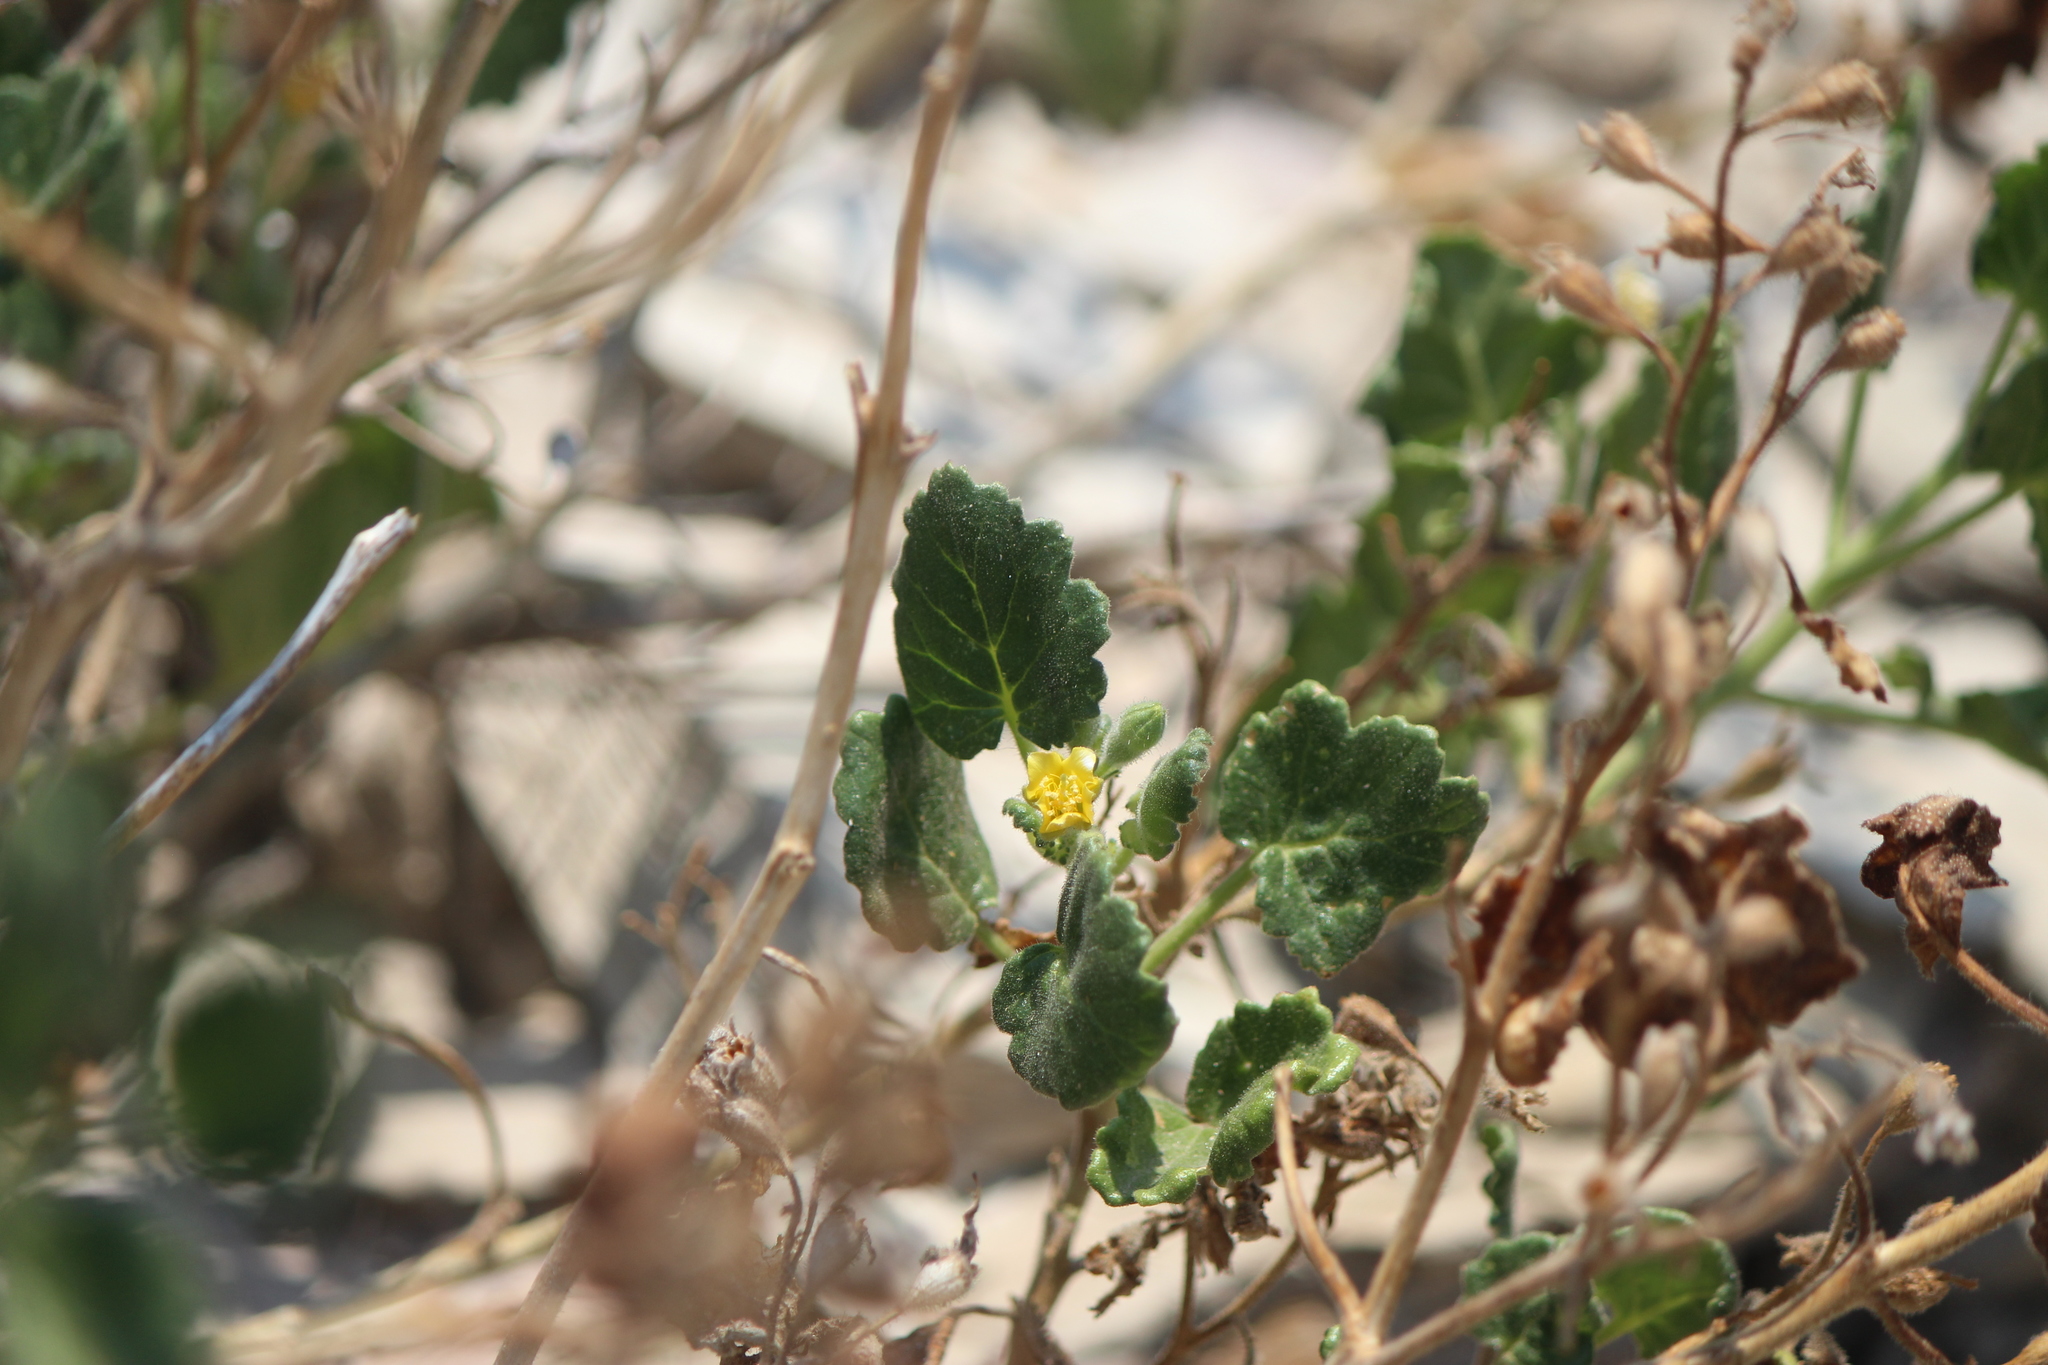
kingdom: Plantae
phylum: Tracheophyta
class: Magnoliopsida
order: Cornales
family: Loasaceae
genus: Eucnide
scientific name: Eucnide hirta
